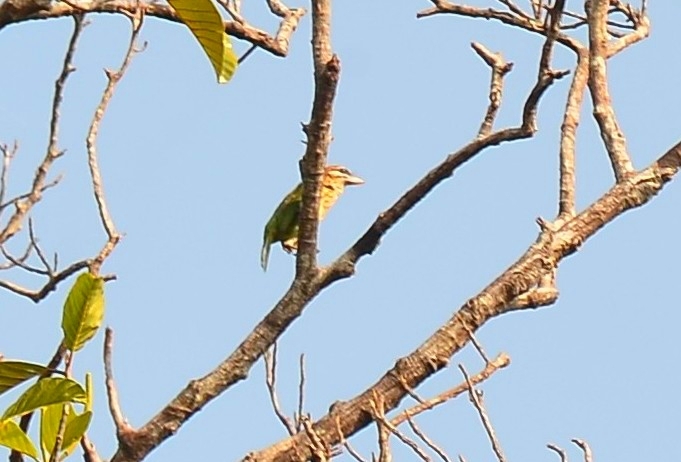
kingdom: Animalia
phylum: Chordata
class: Aves
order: Piciformes
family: Megalaimidae
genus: Psilopogon
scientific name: Psilopogon viridis
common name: White-cheeked barbet
